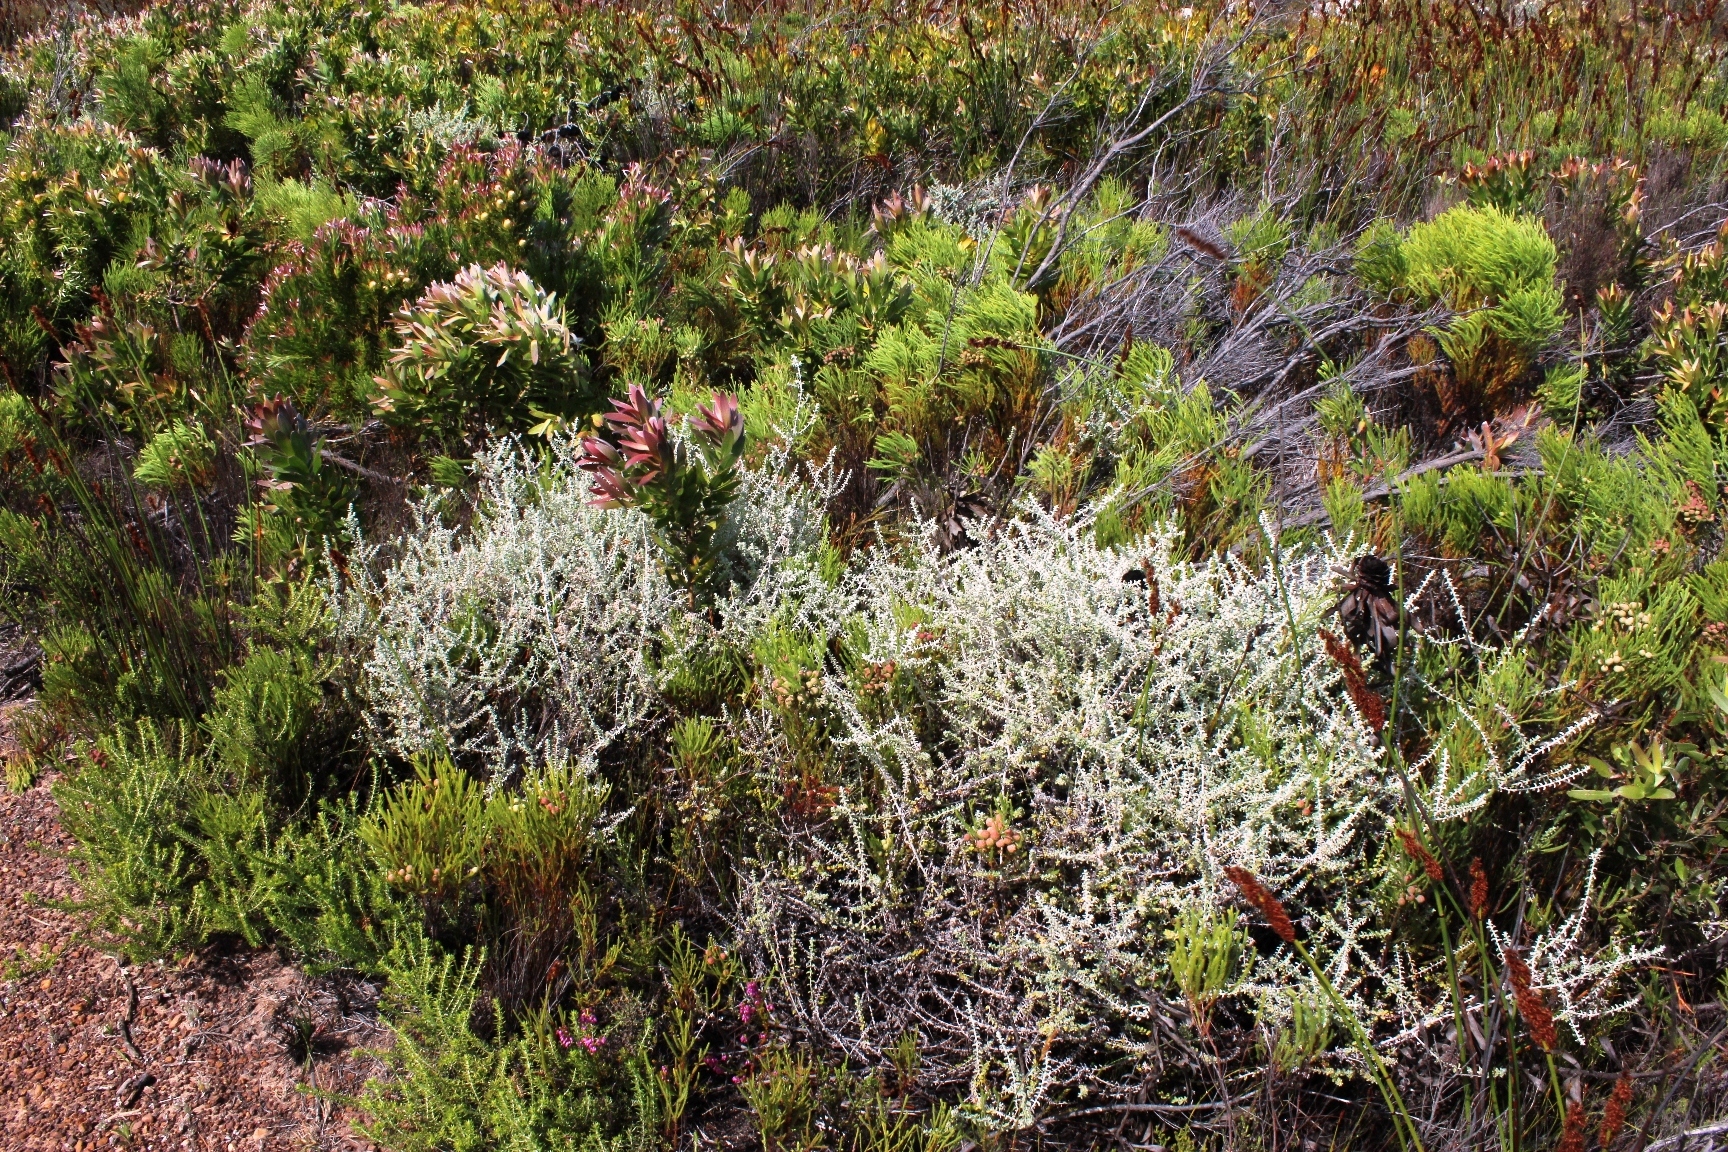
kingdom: Plantae
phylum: Tracheophyta
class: Magnoliopsida
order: Asterales
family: Asteraceae
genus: Plecostachys
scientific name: Plecostachys serpyllifolia
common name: Petite licorice
